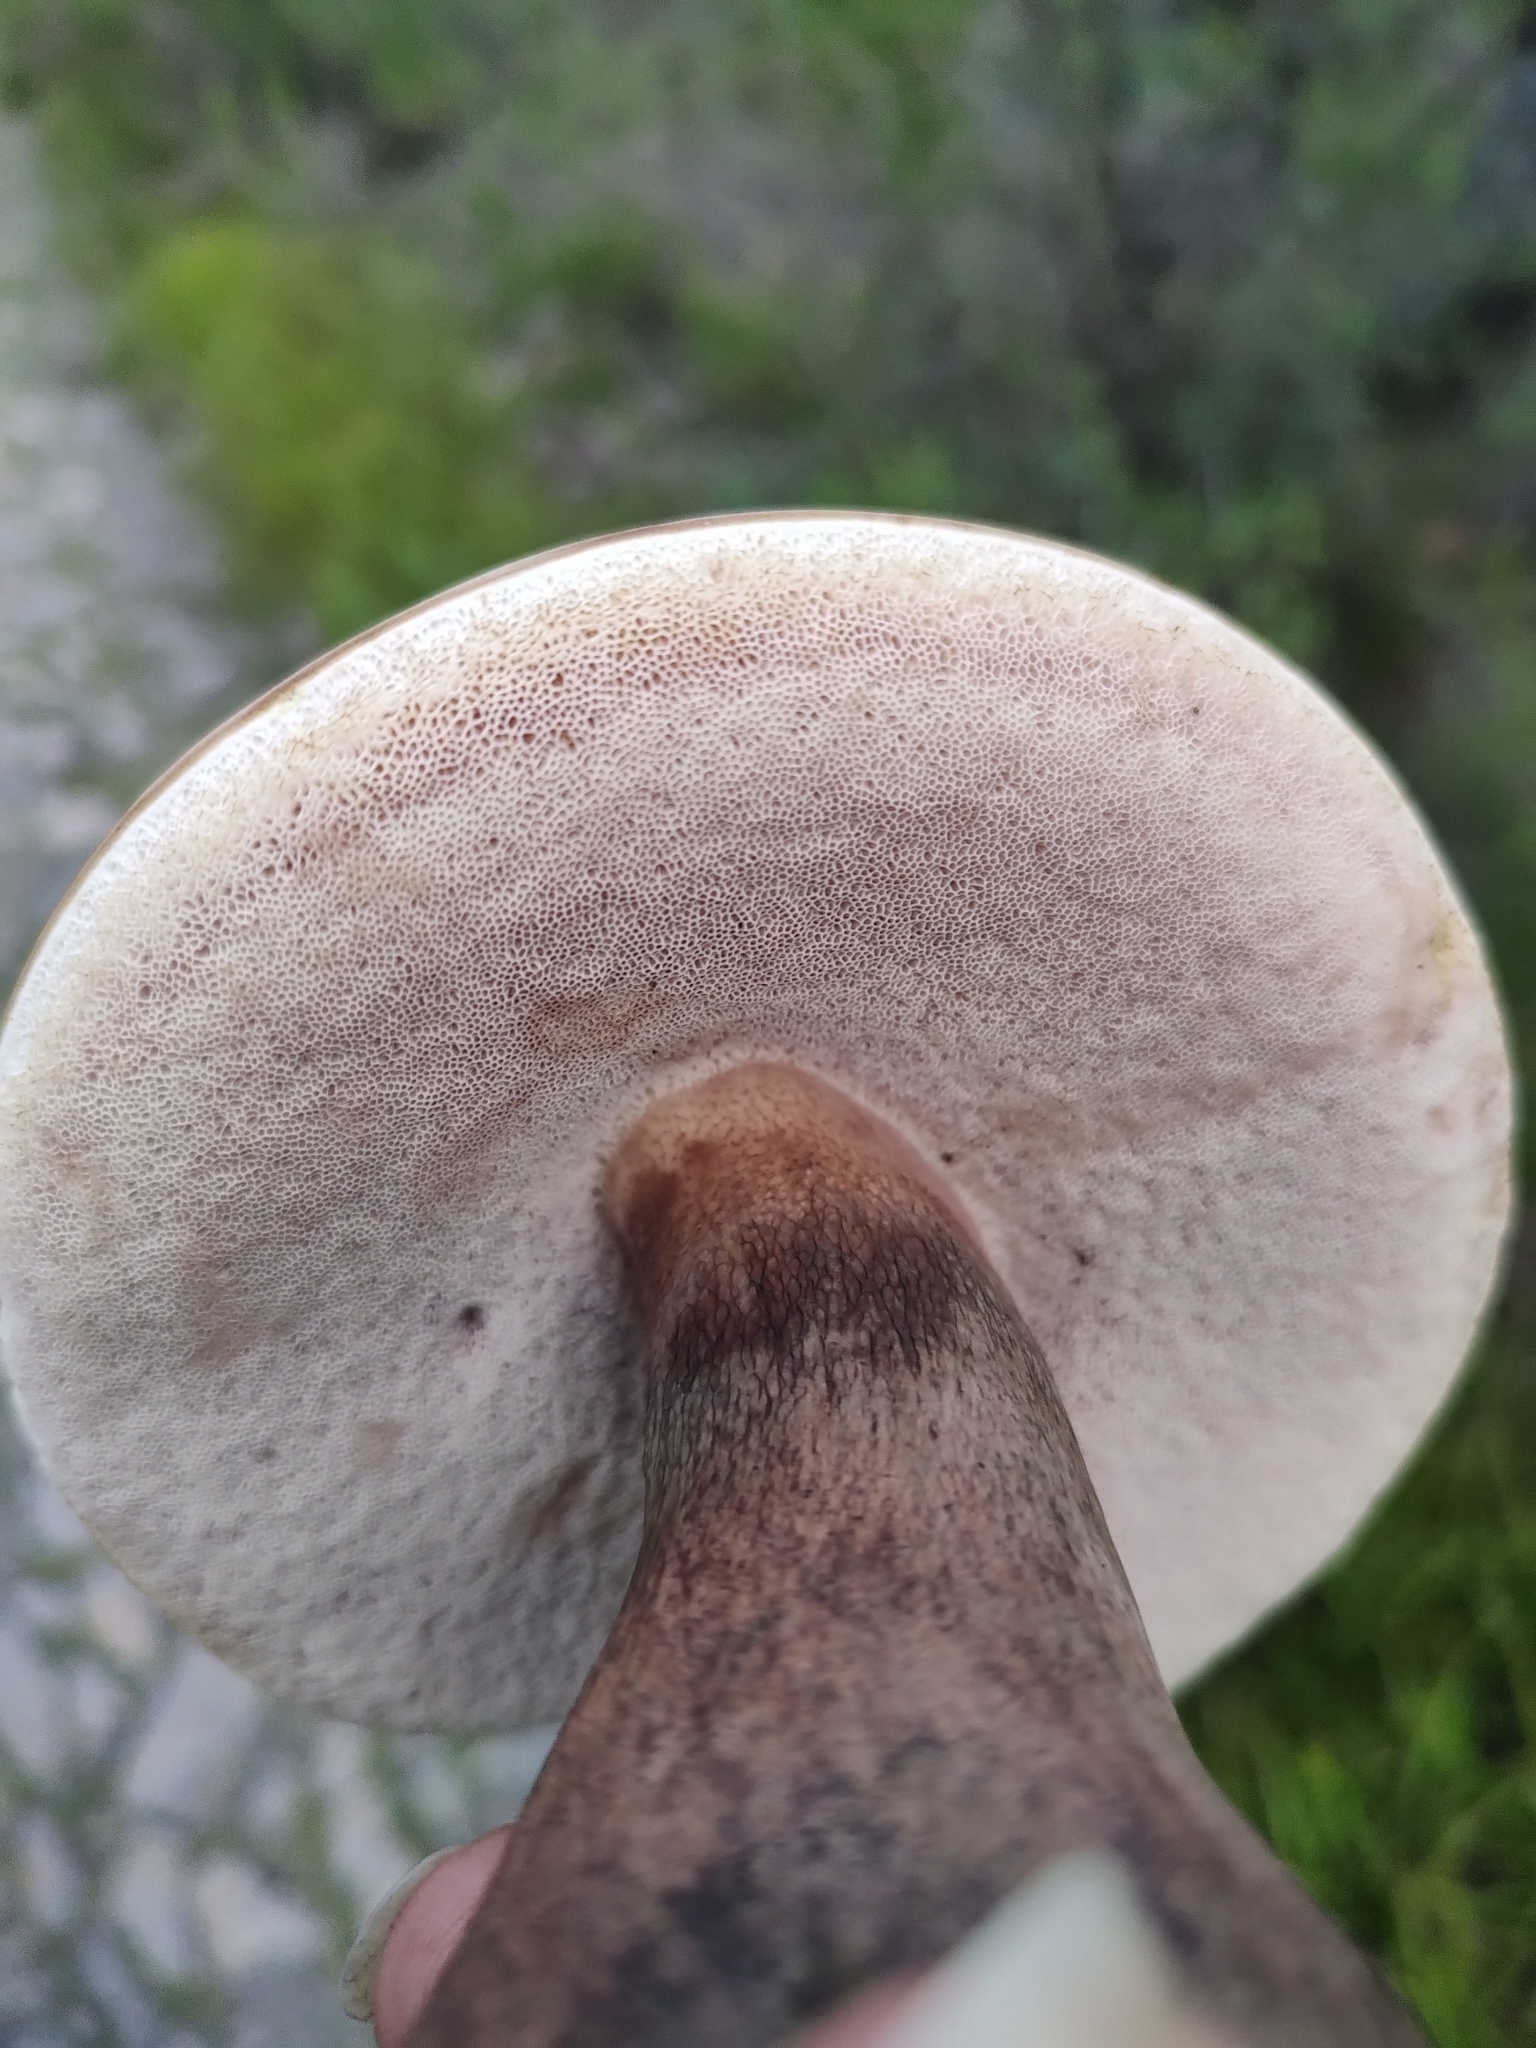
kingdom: Fungi
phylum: Basidiomycota
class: Agaricomycetes
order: Boletales
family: Boletaceae
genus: Tylopilus
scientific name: Tylopilus plumbeoviolaceus
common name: Violet gray bolete
